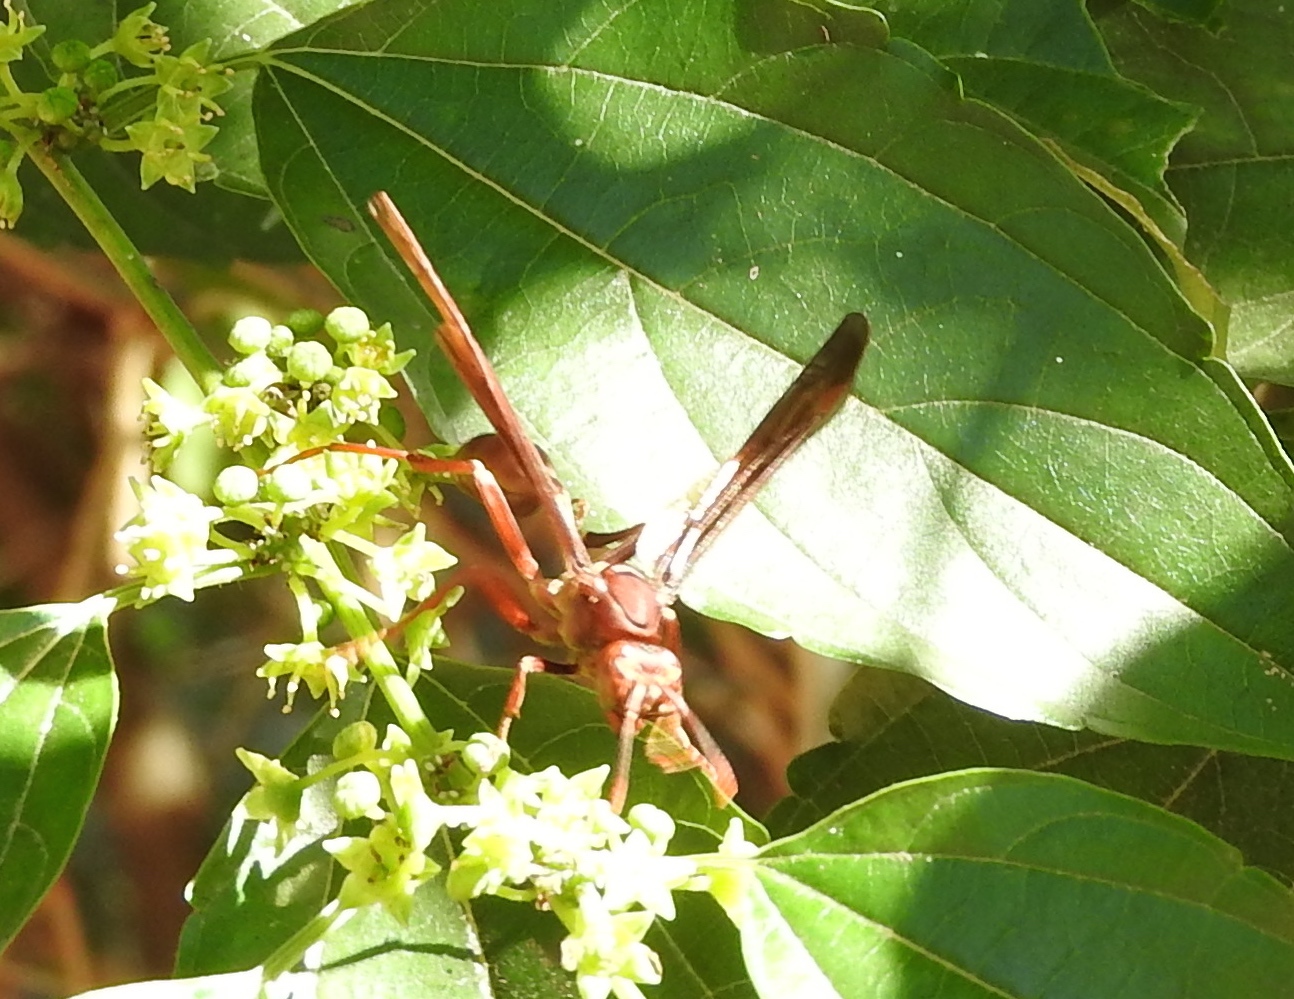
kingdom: Animalia
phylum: Arthropoda
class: Insecta
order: Hymenoptera
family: Vespidae
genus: Mischocyttarus
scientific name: Mischocyttarus melanarius
